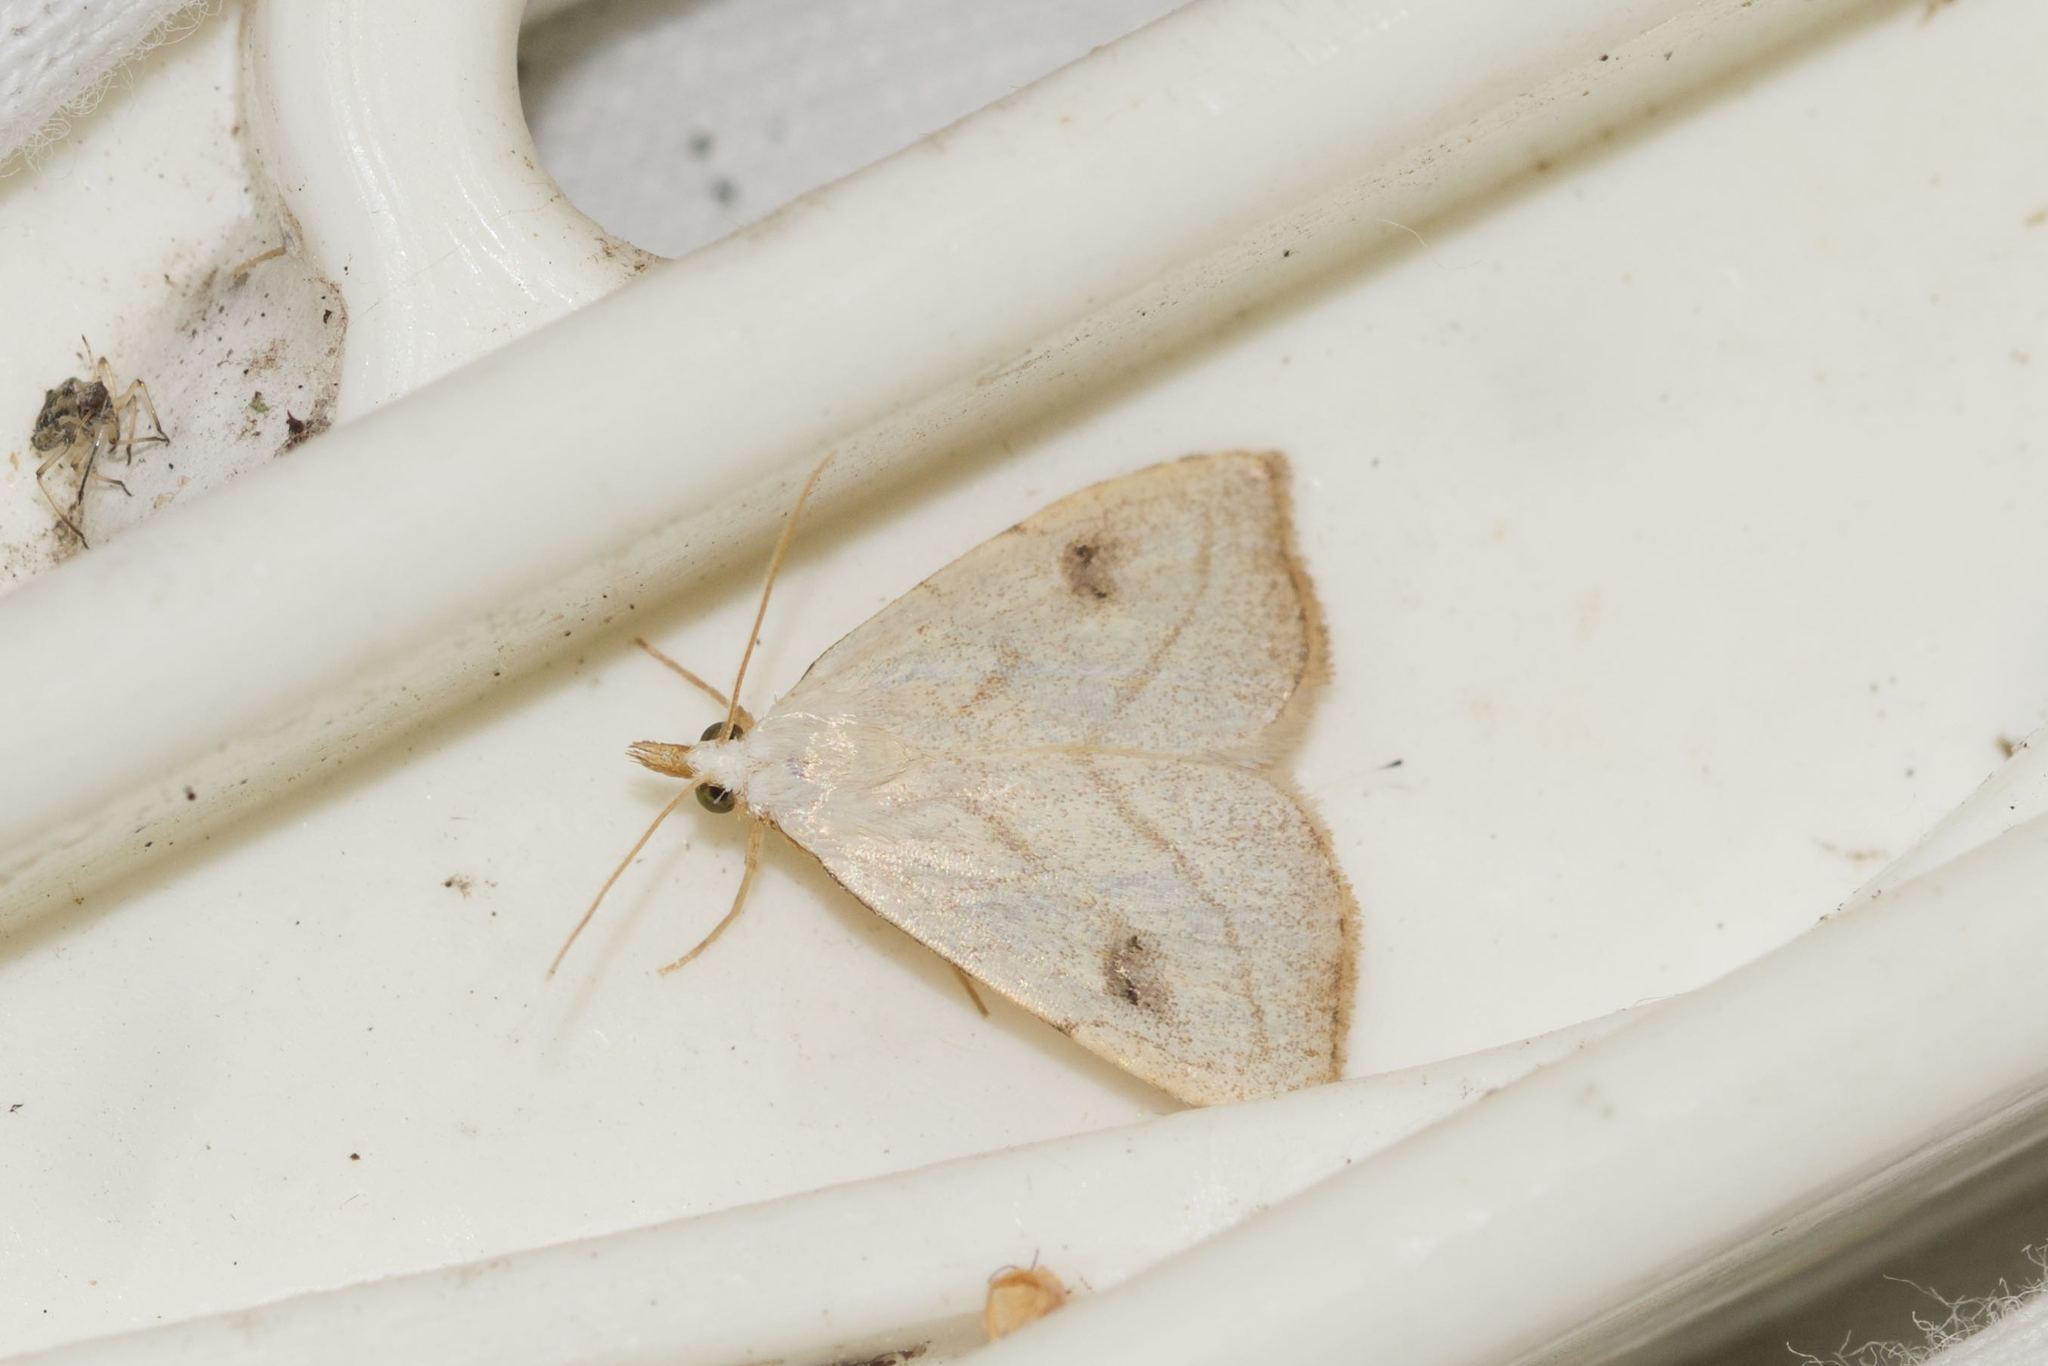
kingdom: Animalia
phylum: Arthropoda
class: Insecta
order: Lepidoptera
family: Erebidae
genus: Rivula
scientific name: Rivula propinqualis
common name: Spotted grass moth
